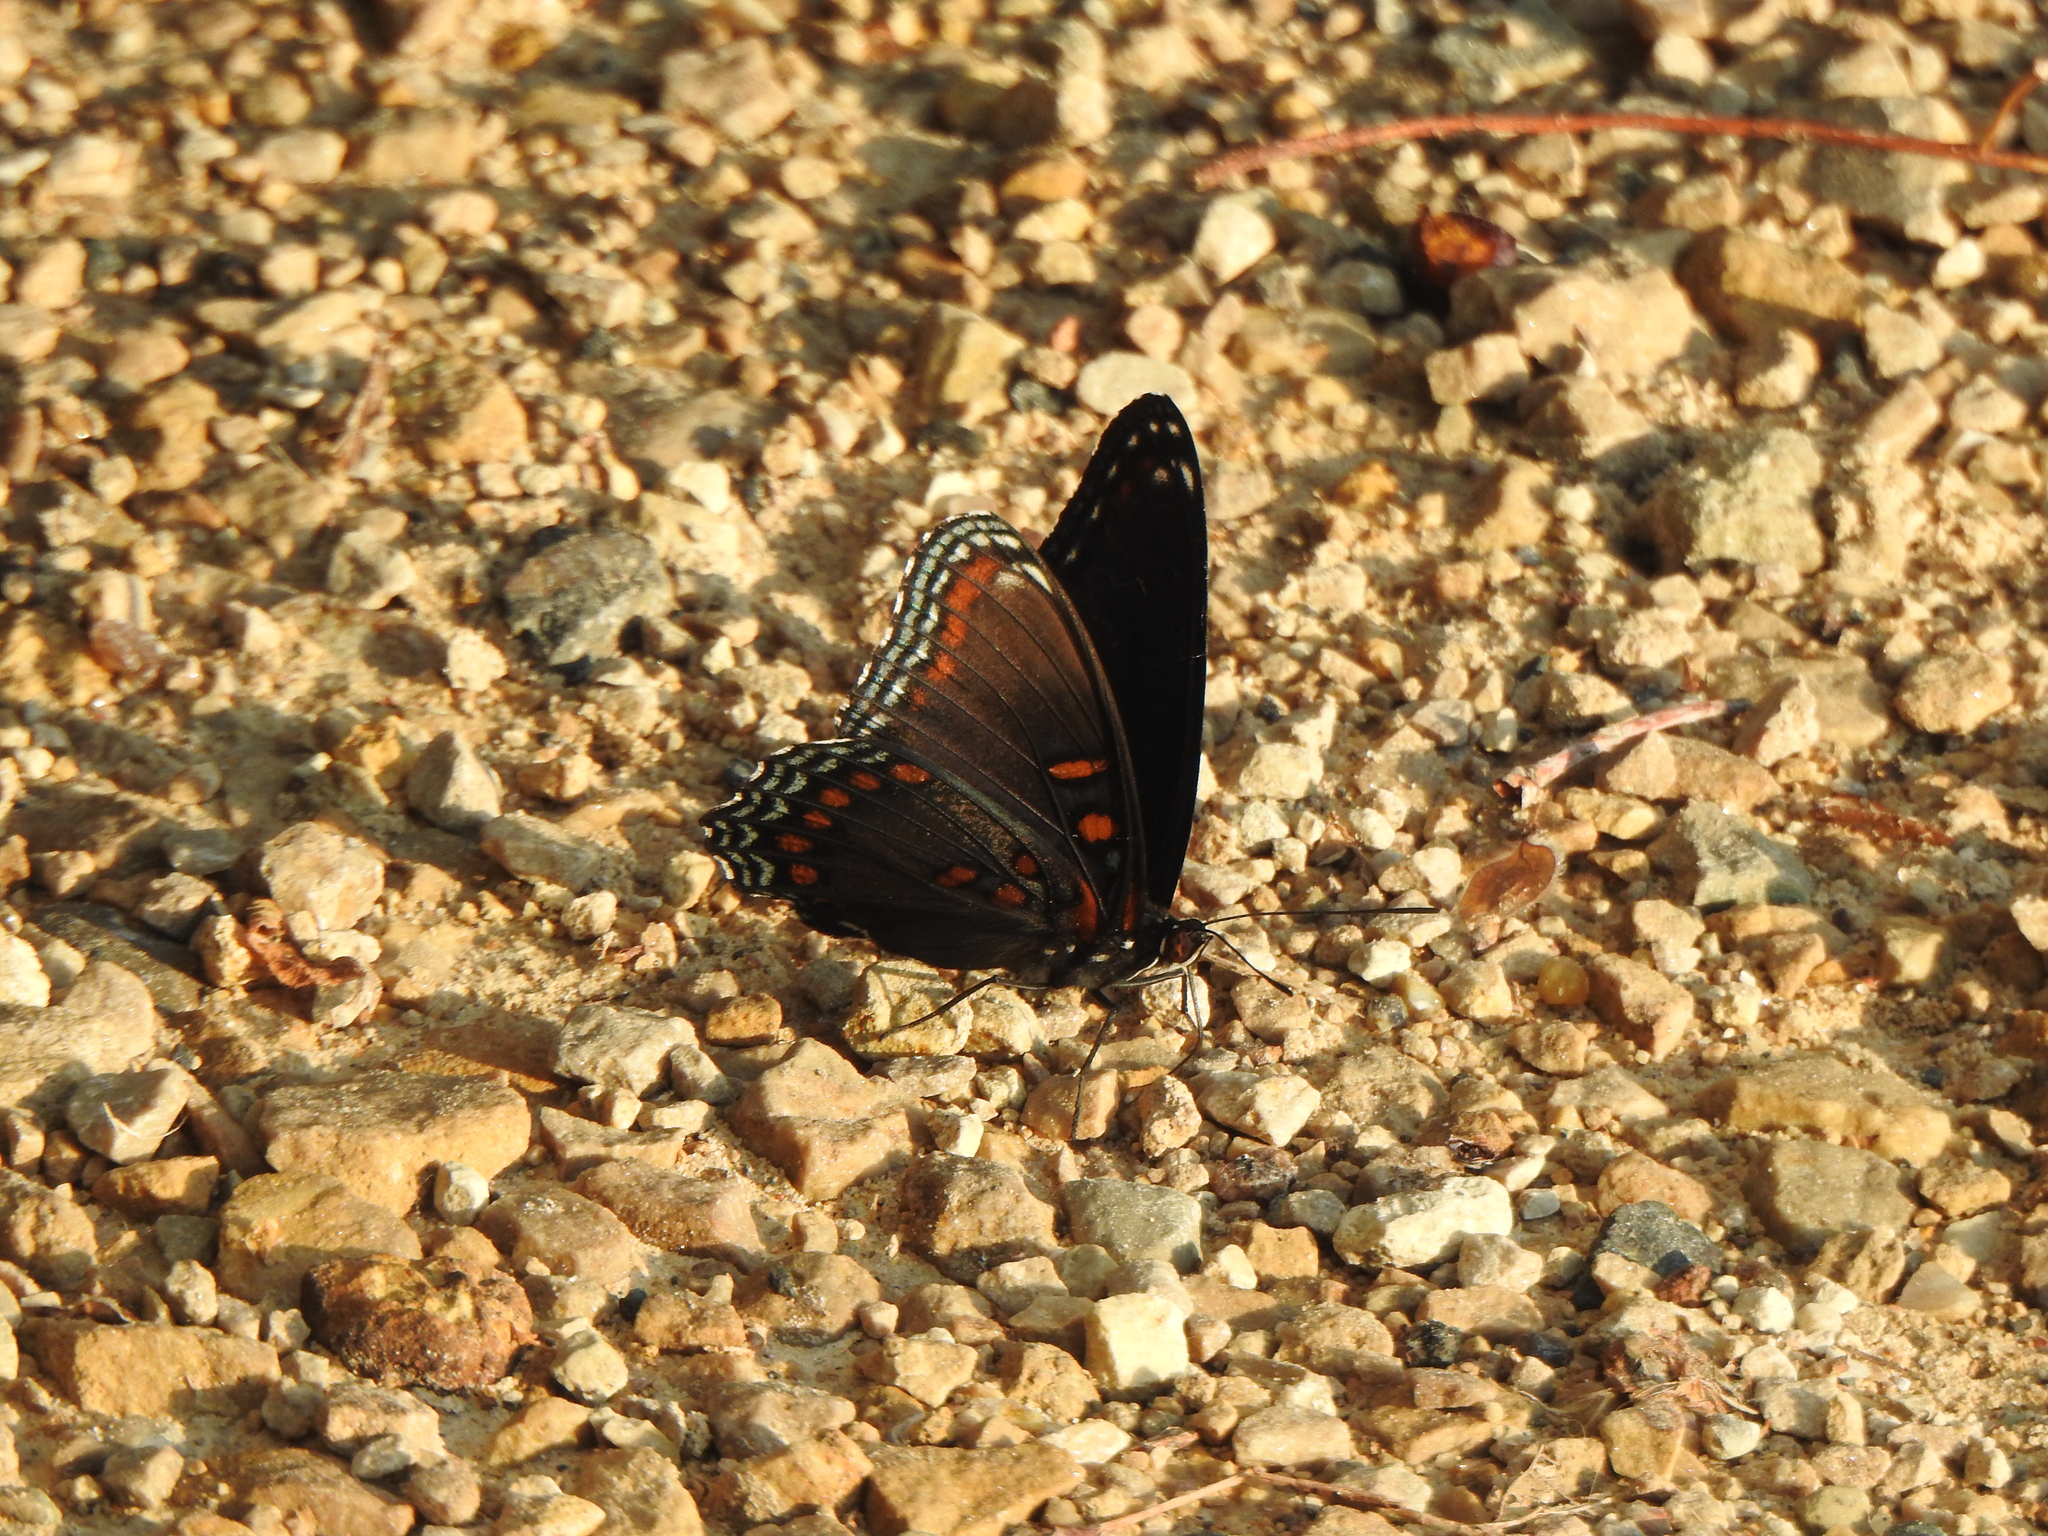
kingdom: Animalia
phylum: Arthropoda
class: Insecta
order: Lepidoptera
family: Nymphalidae
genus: Limenitis
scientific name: Limenitis astyanax
